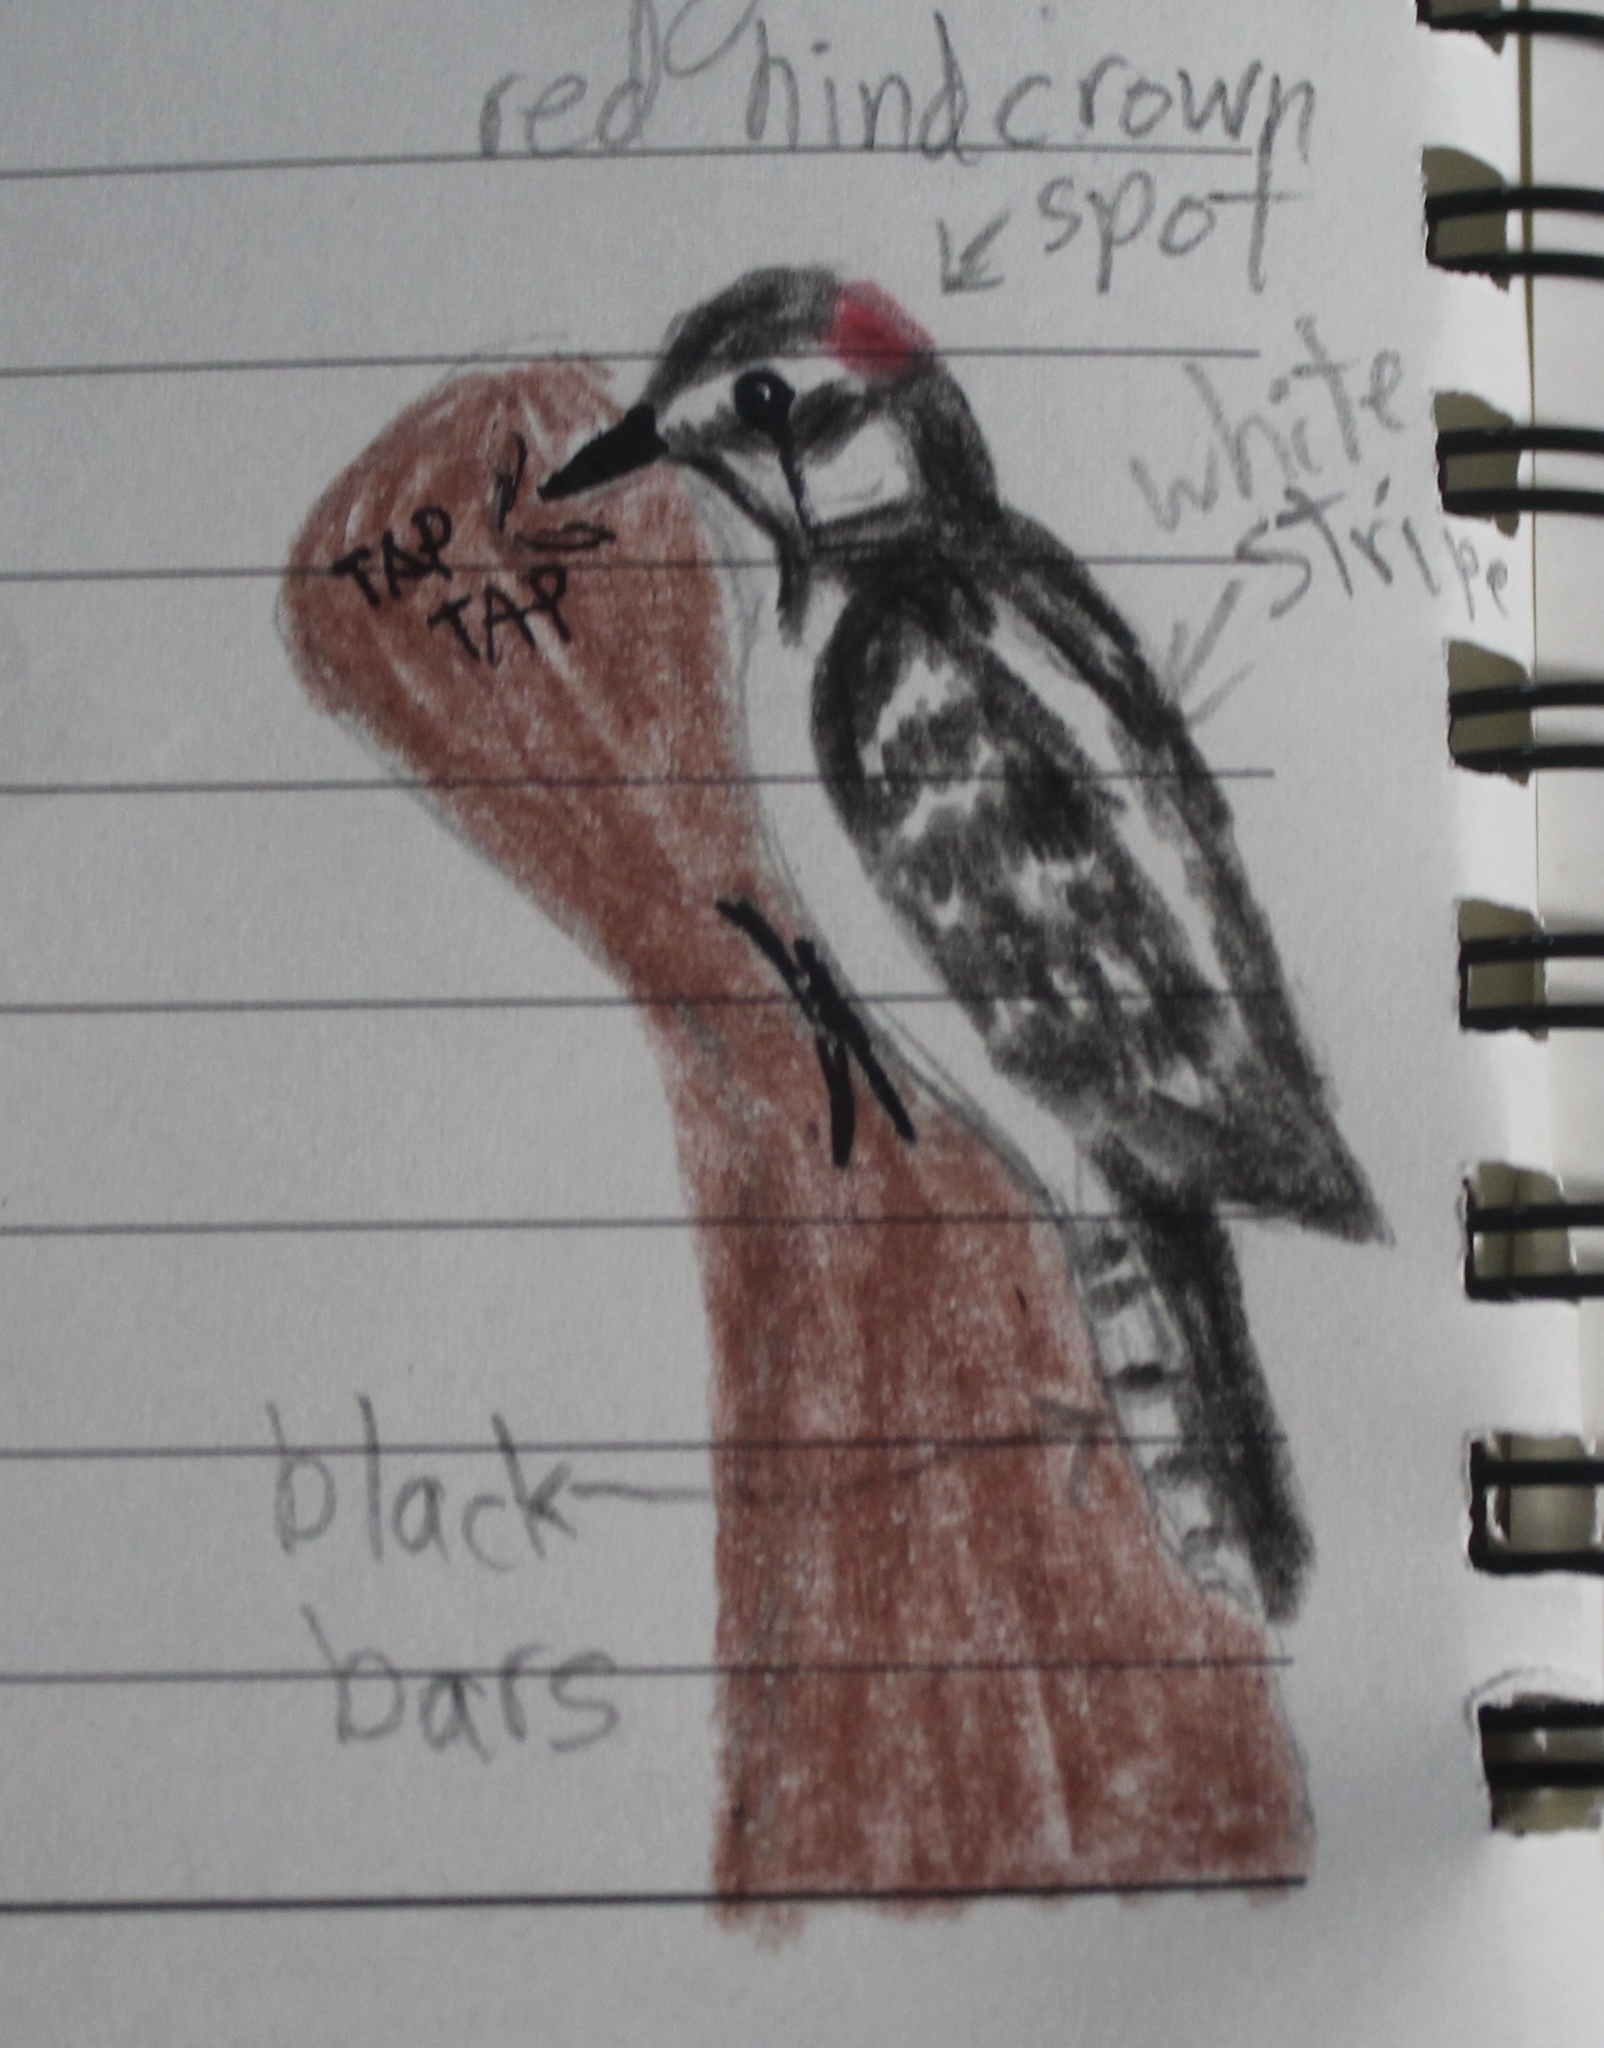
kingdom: Animalia
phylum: Chordata
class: Aves
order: Piciformes
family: Picidae
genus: Dryobates
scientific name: Dryobates pubescens
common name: Downy woodpecker
